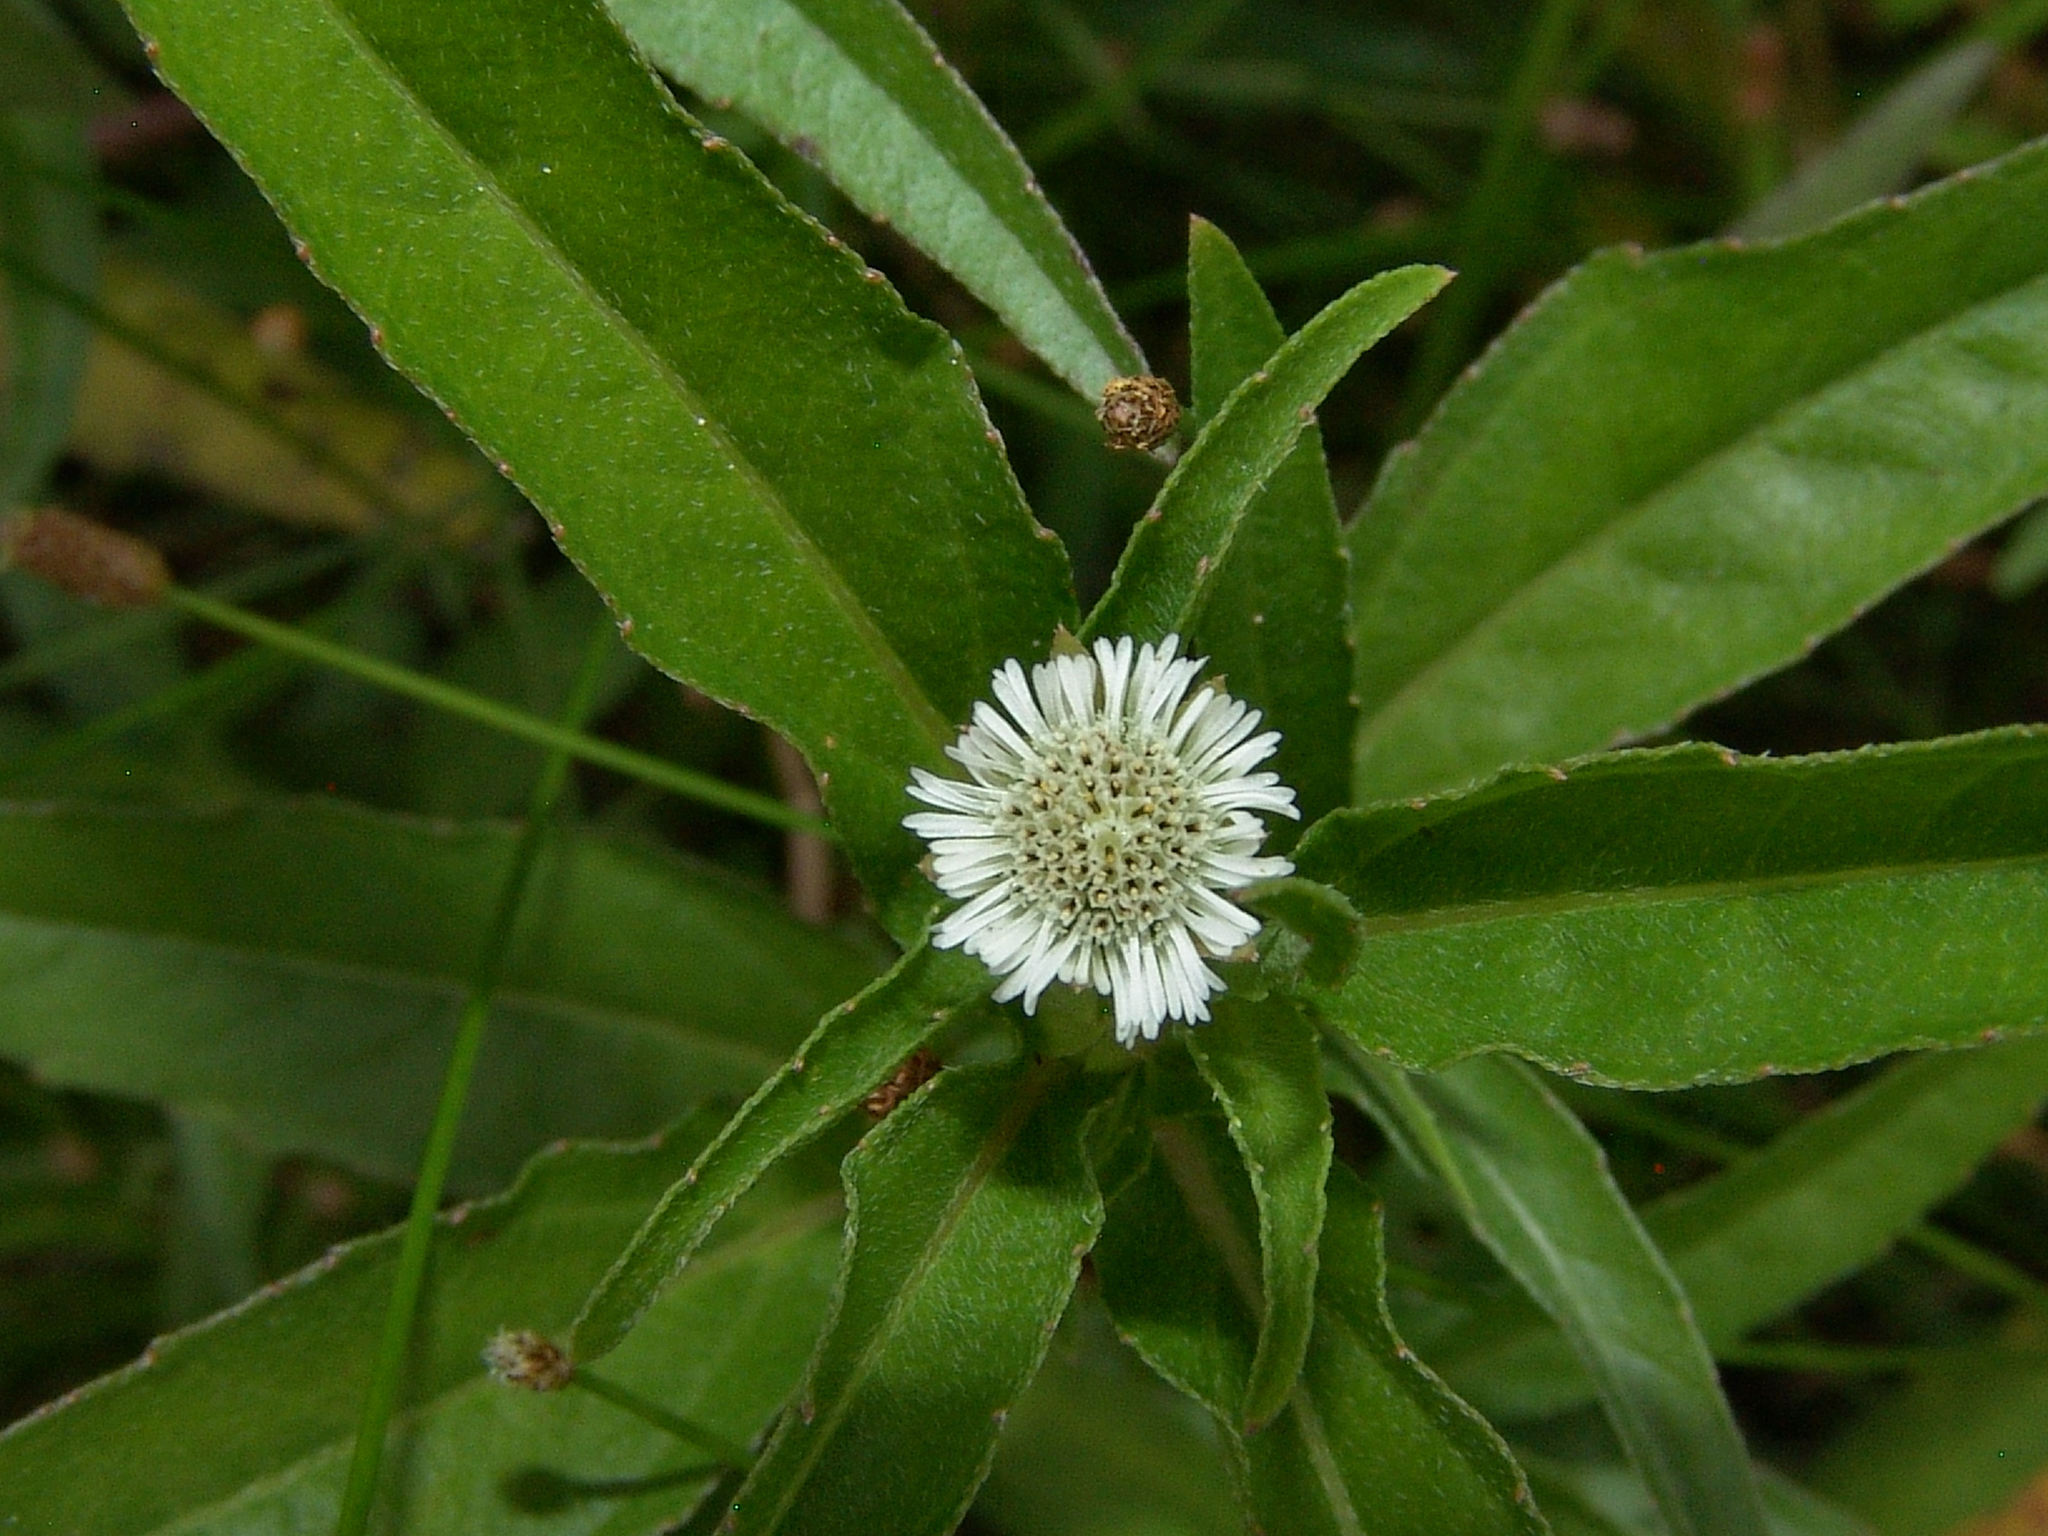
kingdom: Plantae
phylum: Tracheophyta
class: Magnoliopsida
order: Asterales
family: Asteraceae
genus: Eclipta
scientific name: Eclipta prostrata
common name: False daisy
